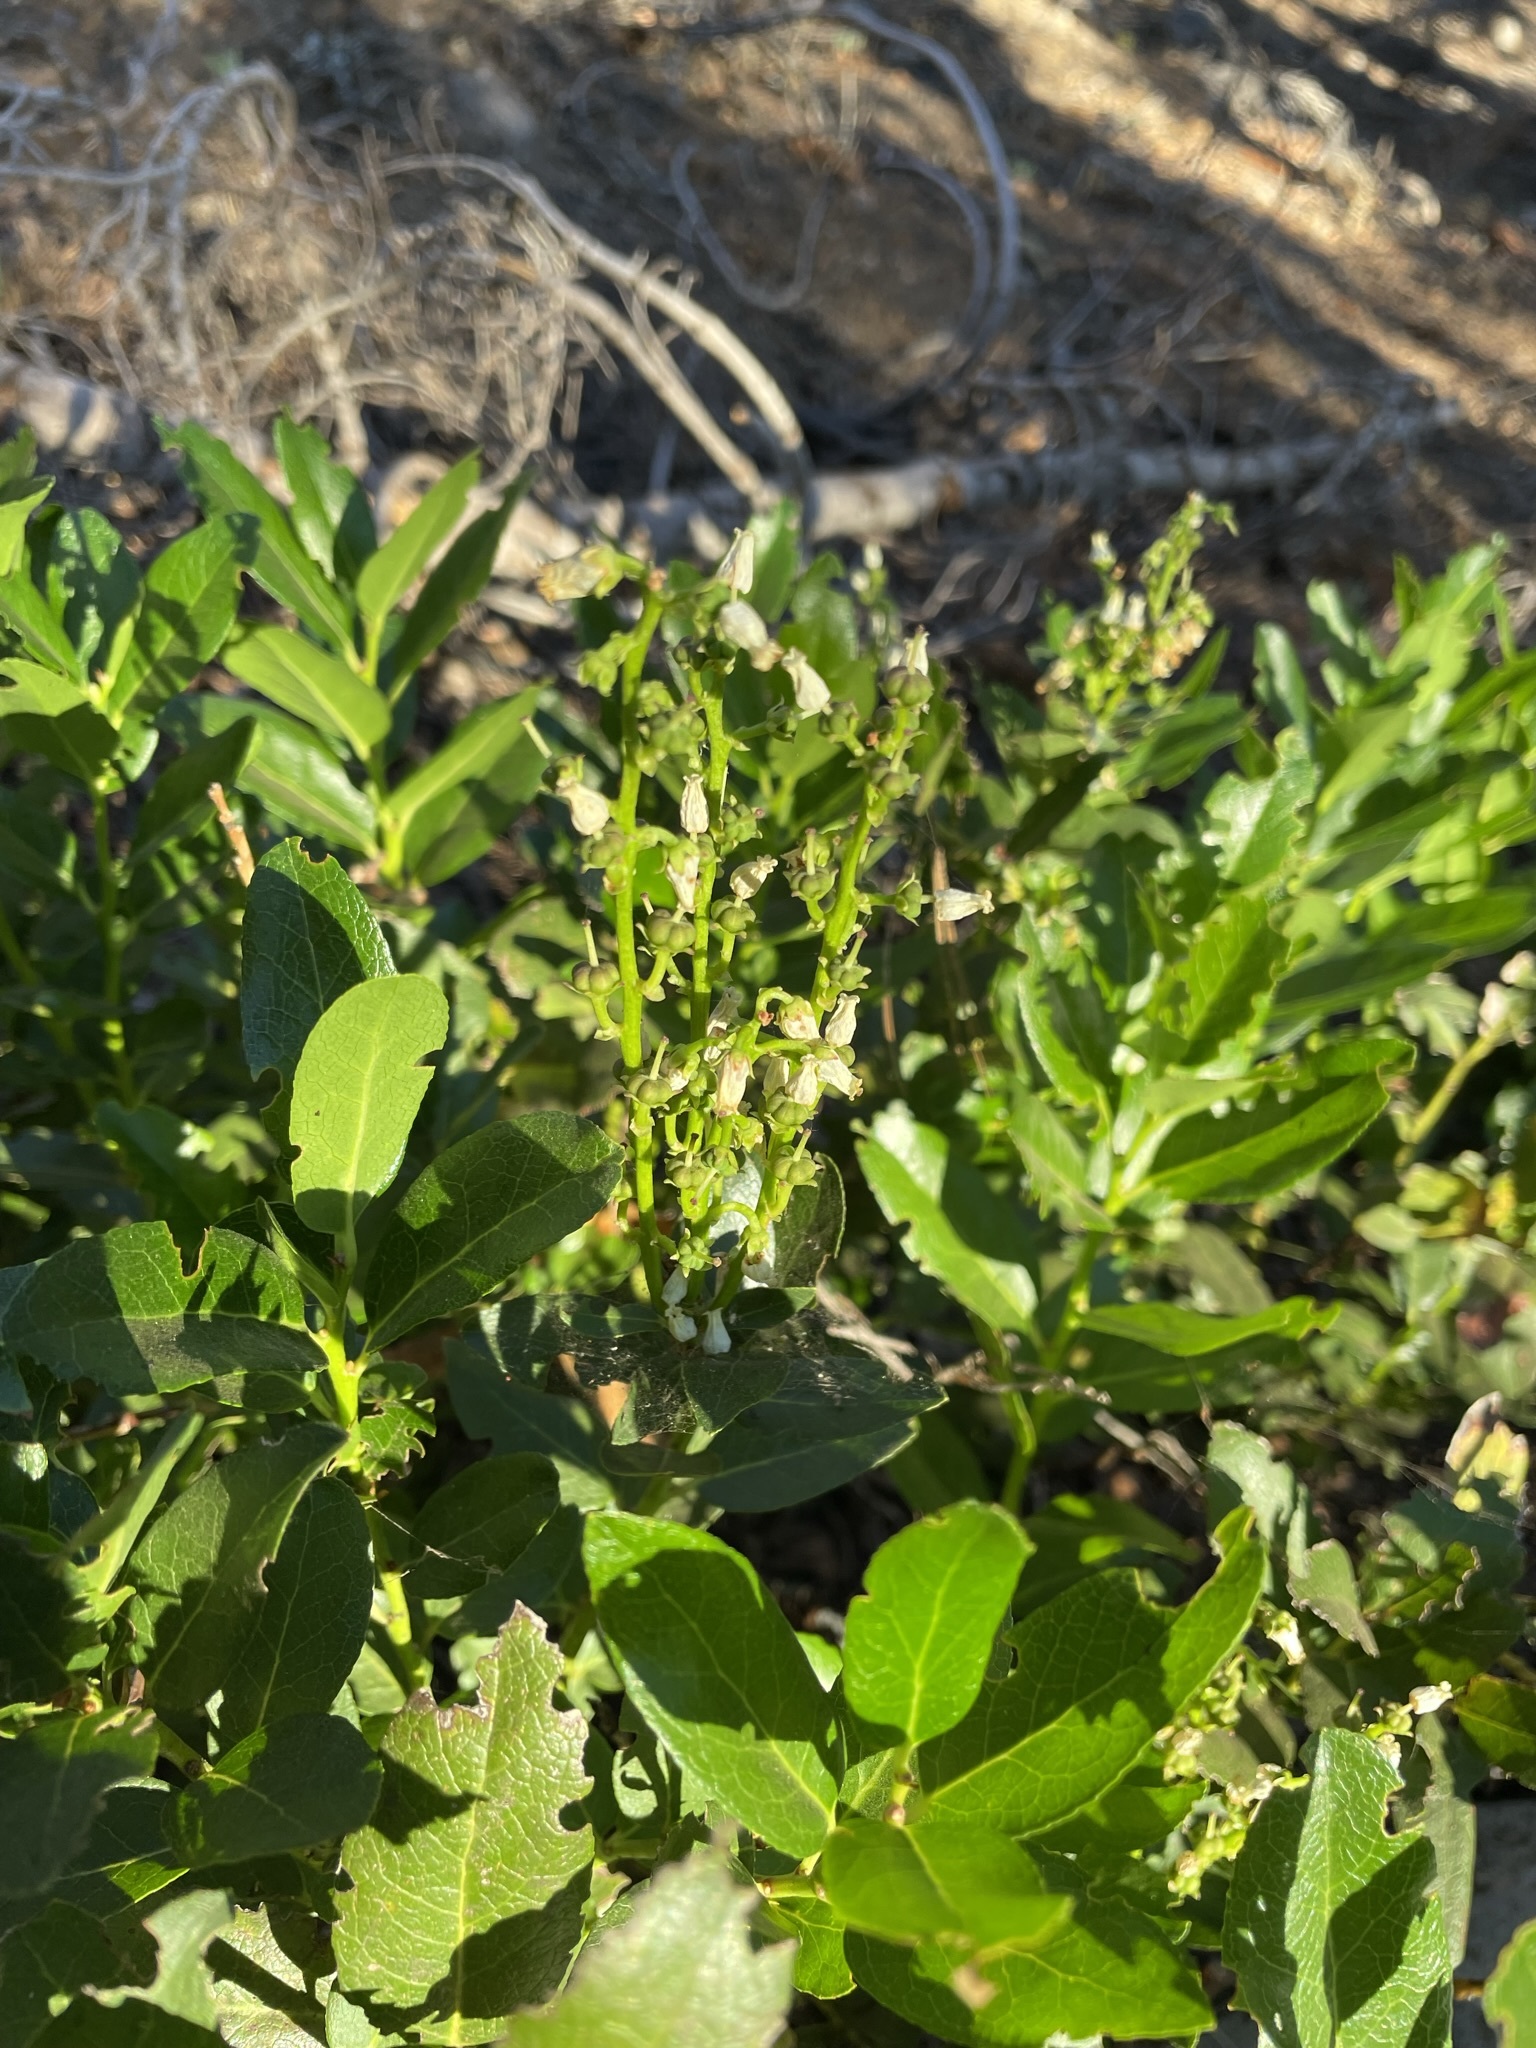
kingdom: Plantae
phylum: Tracheophyta
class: Magnoliopsida
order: Ericales
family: Ericaceae
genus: Leucothoe
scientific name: Leucothoe davisiae
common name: Sierra-laurel
